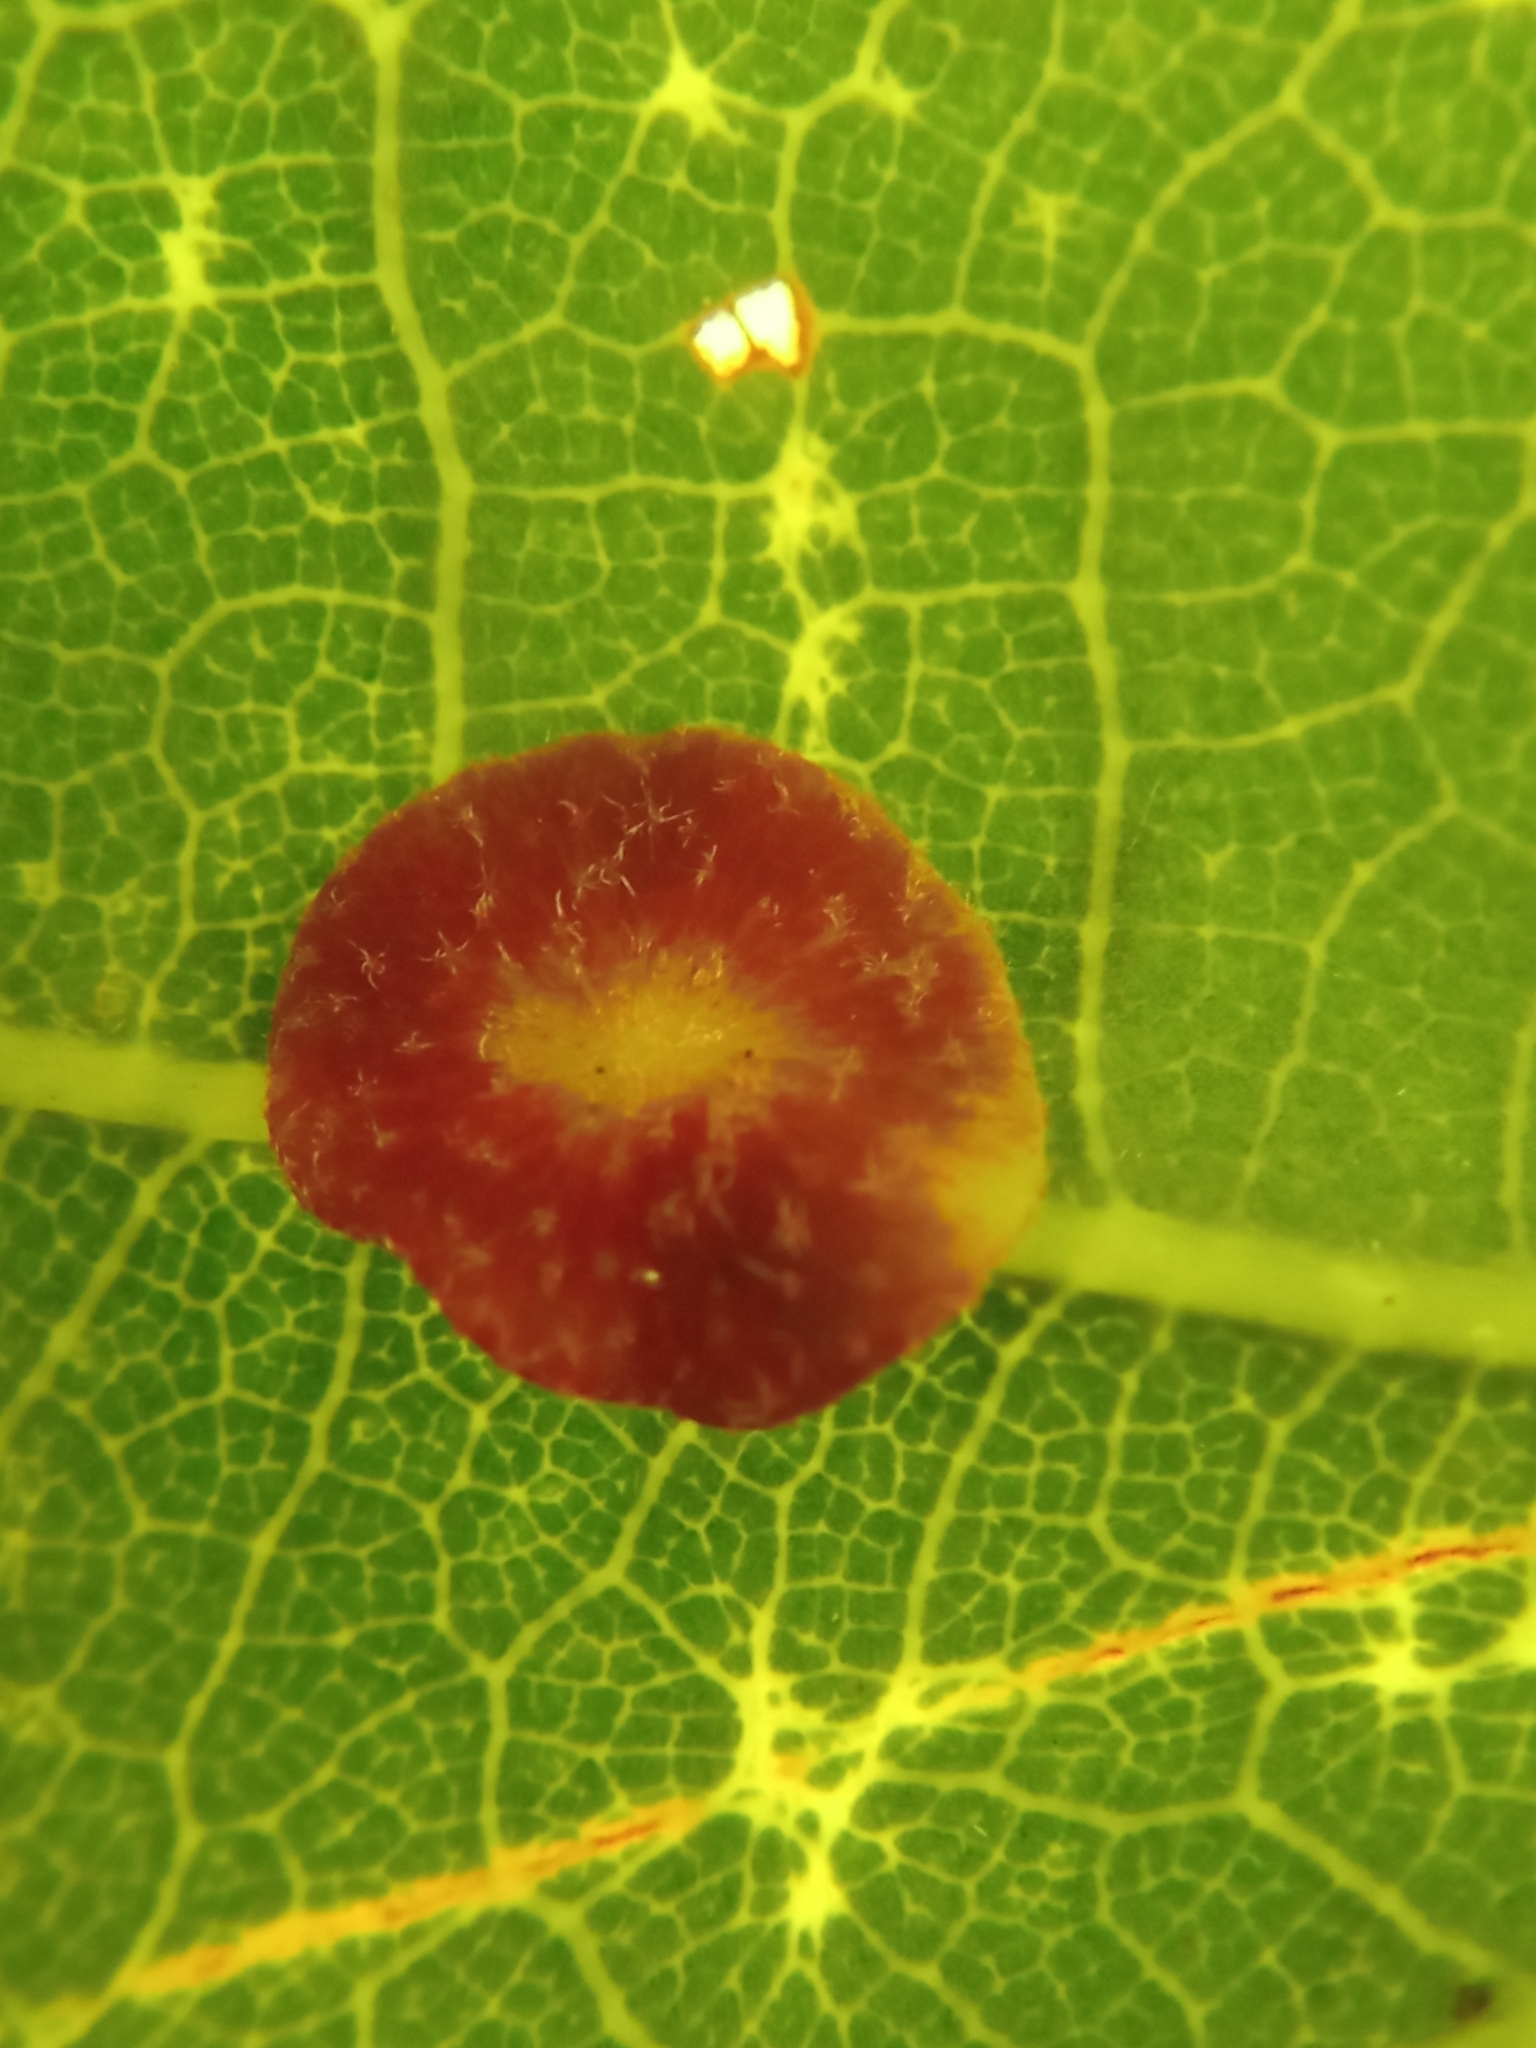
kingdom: Animalia
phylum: Arthropoda
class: Insecta
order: Hymenoptera
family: Cynipidae
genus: Neuroterus
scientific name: Neuroterus quercusbaccarum
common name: Common spangle gall
